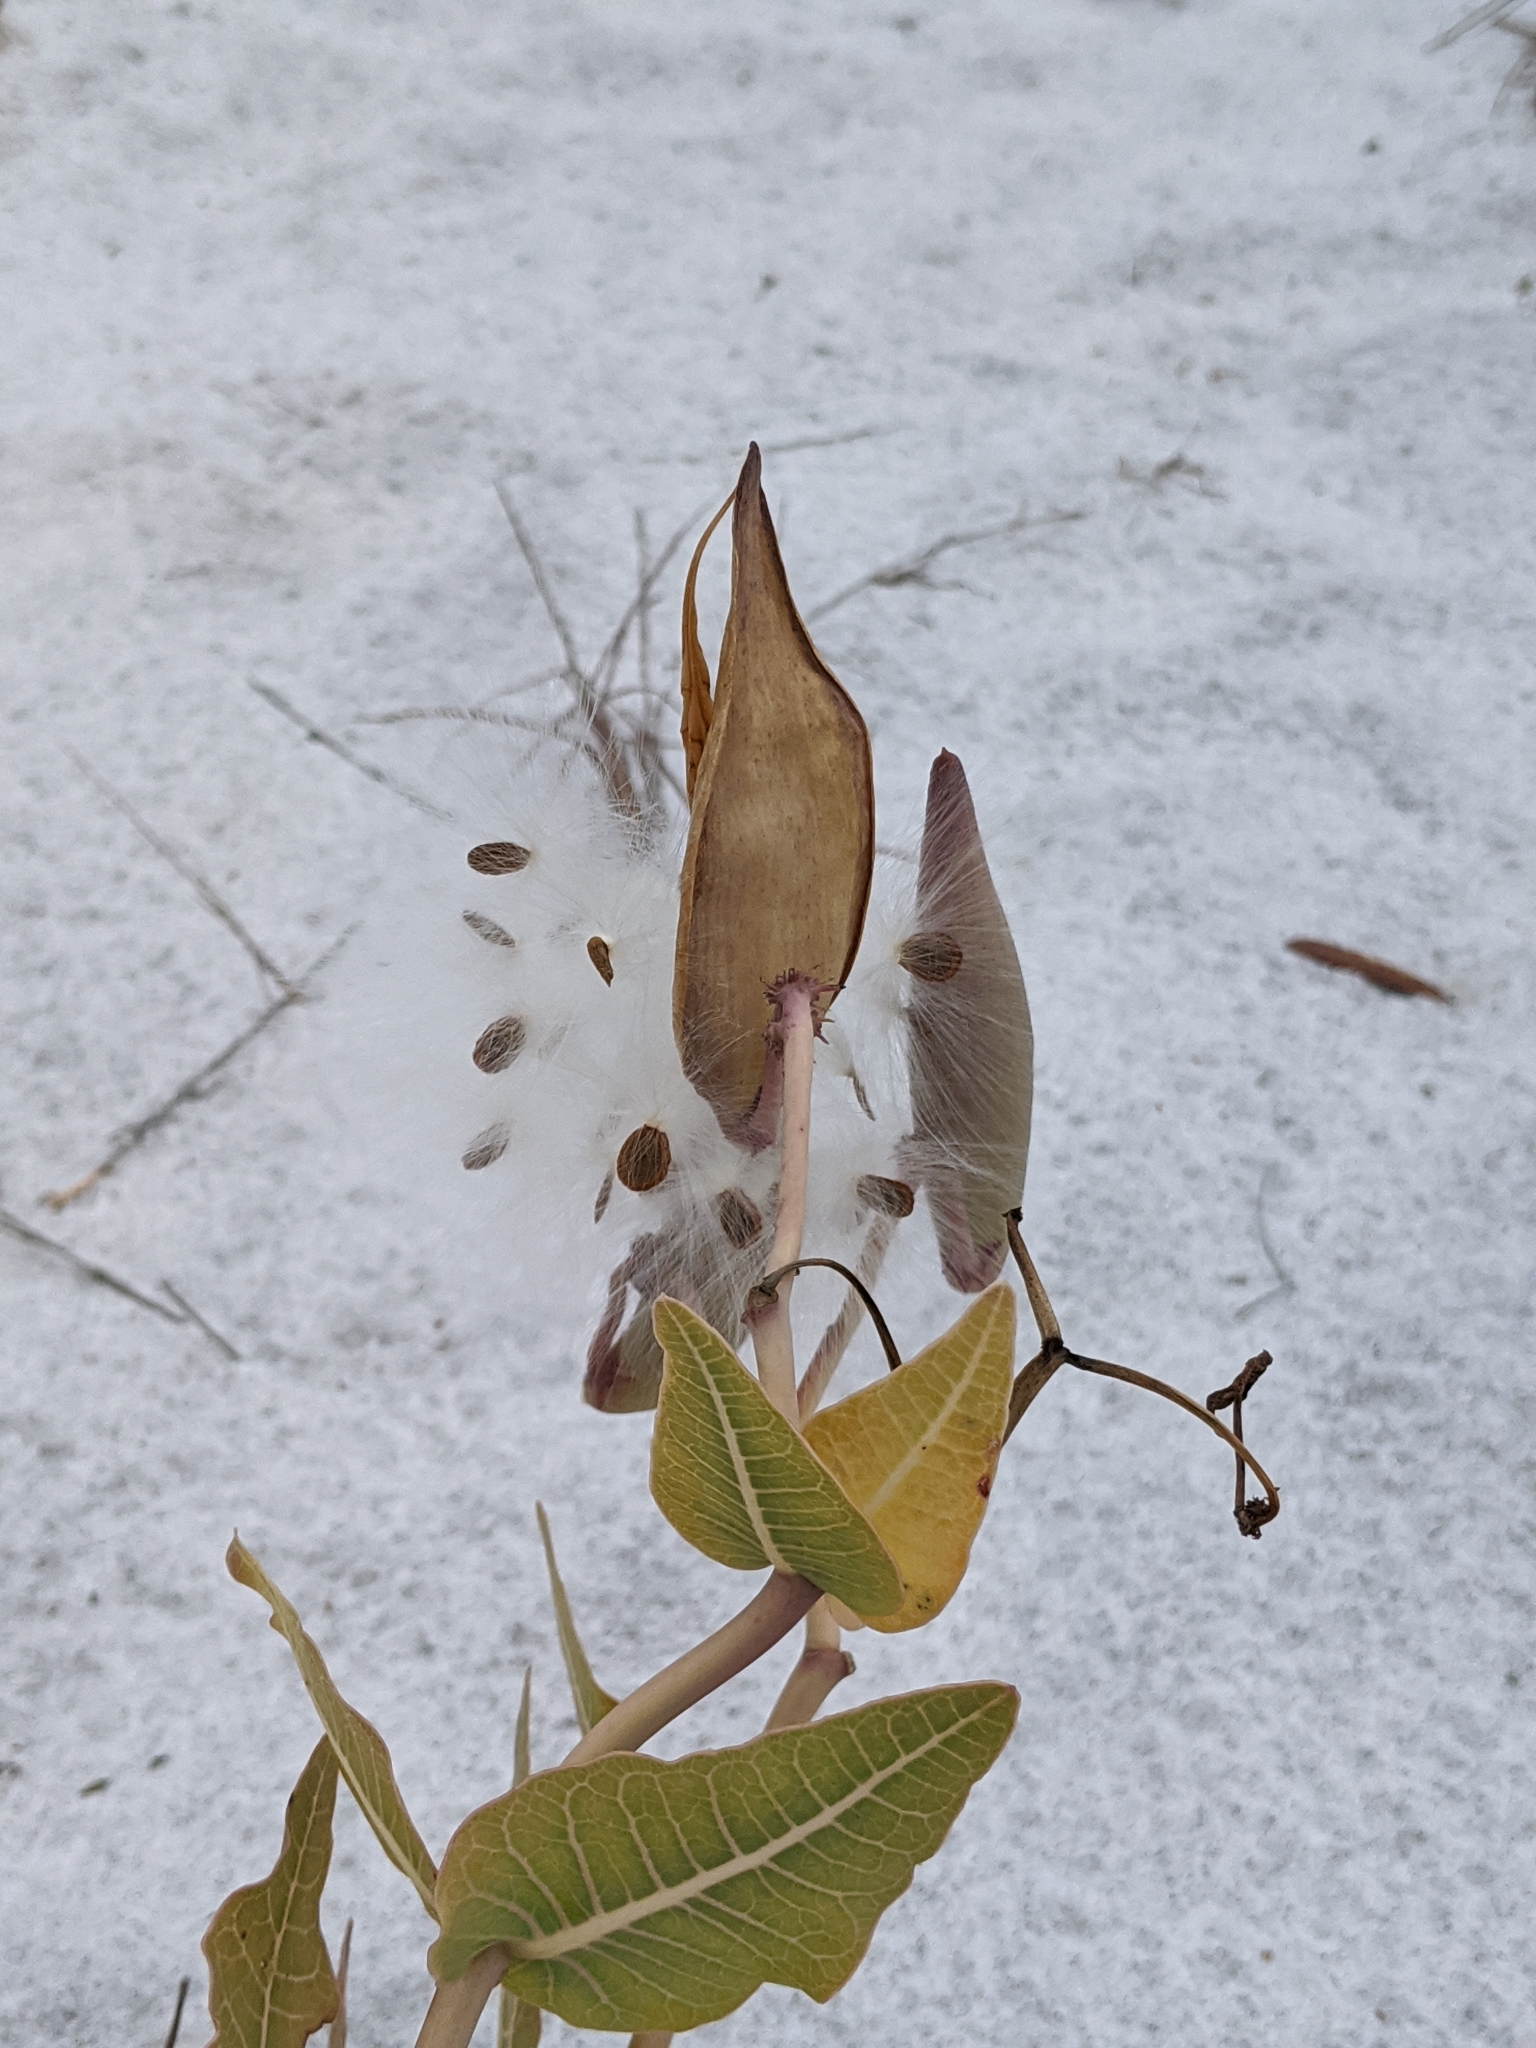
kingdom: Plantae
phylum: Tracheophyta
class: Magnoliopsida
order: Gentianales
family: Apocynaceae
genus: Asclepias
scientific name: Asclepias humistrata
